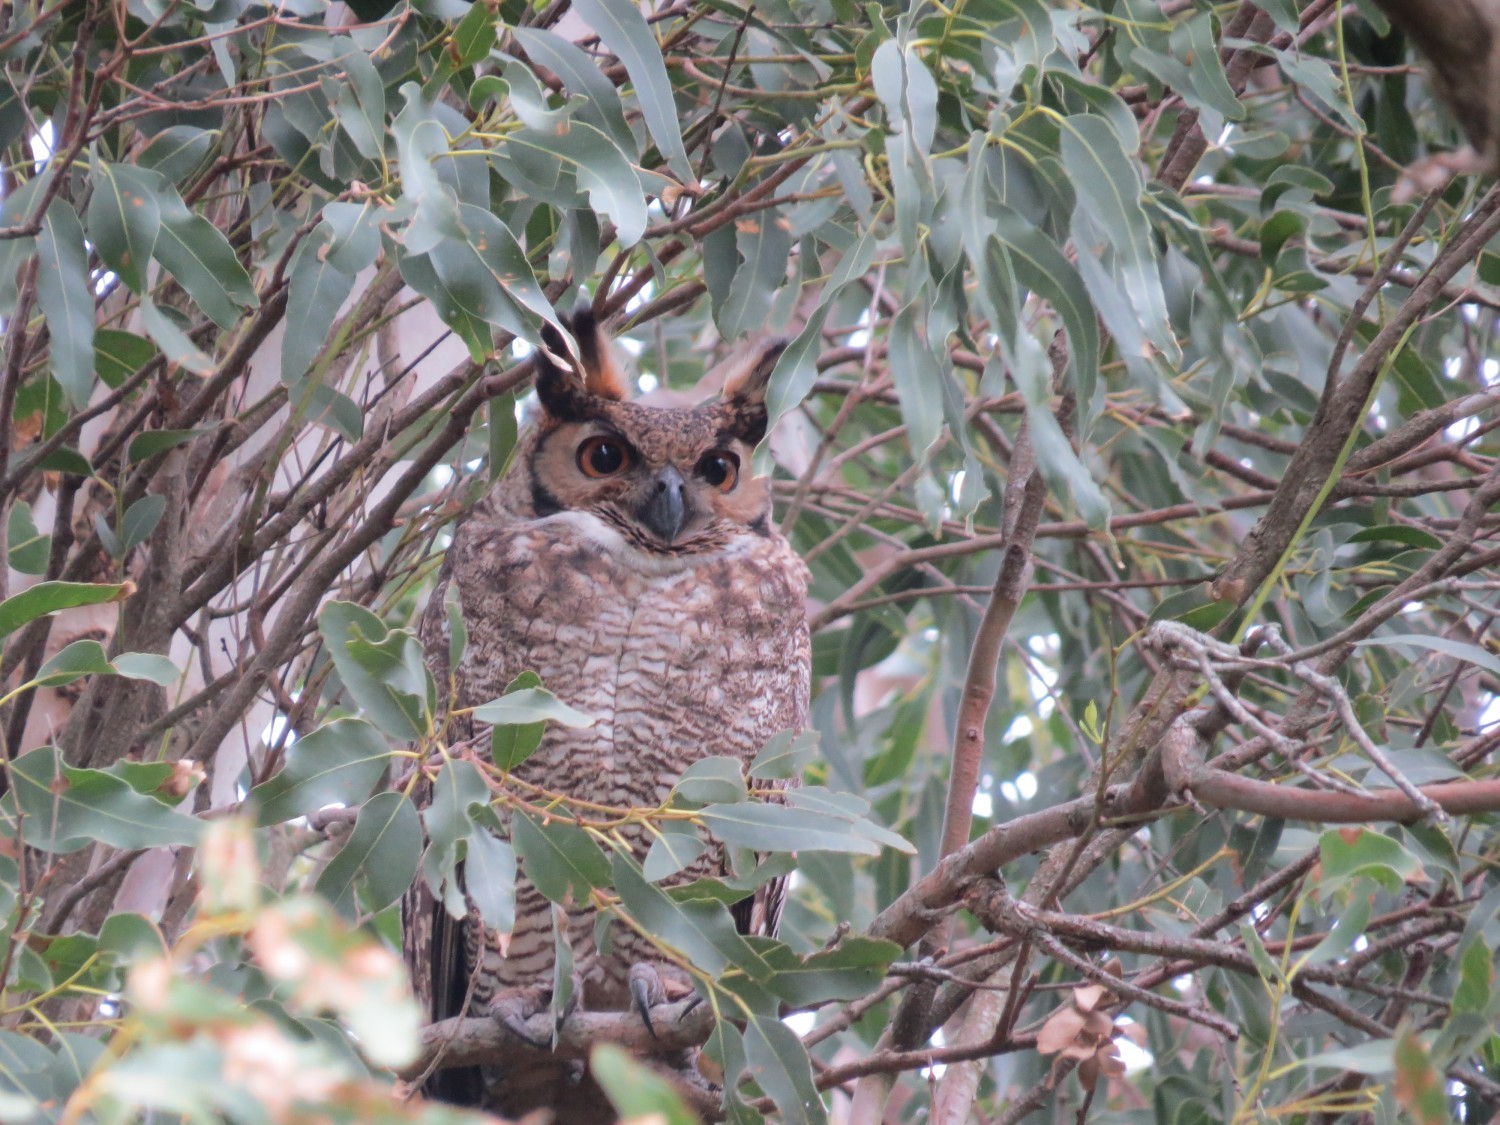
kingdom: Animalia
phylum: Chordata
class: Aves
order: Strigiformes
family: Strigidae
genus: Bubo
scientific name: Bubo virginianus
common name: Great horned owl
